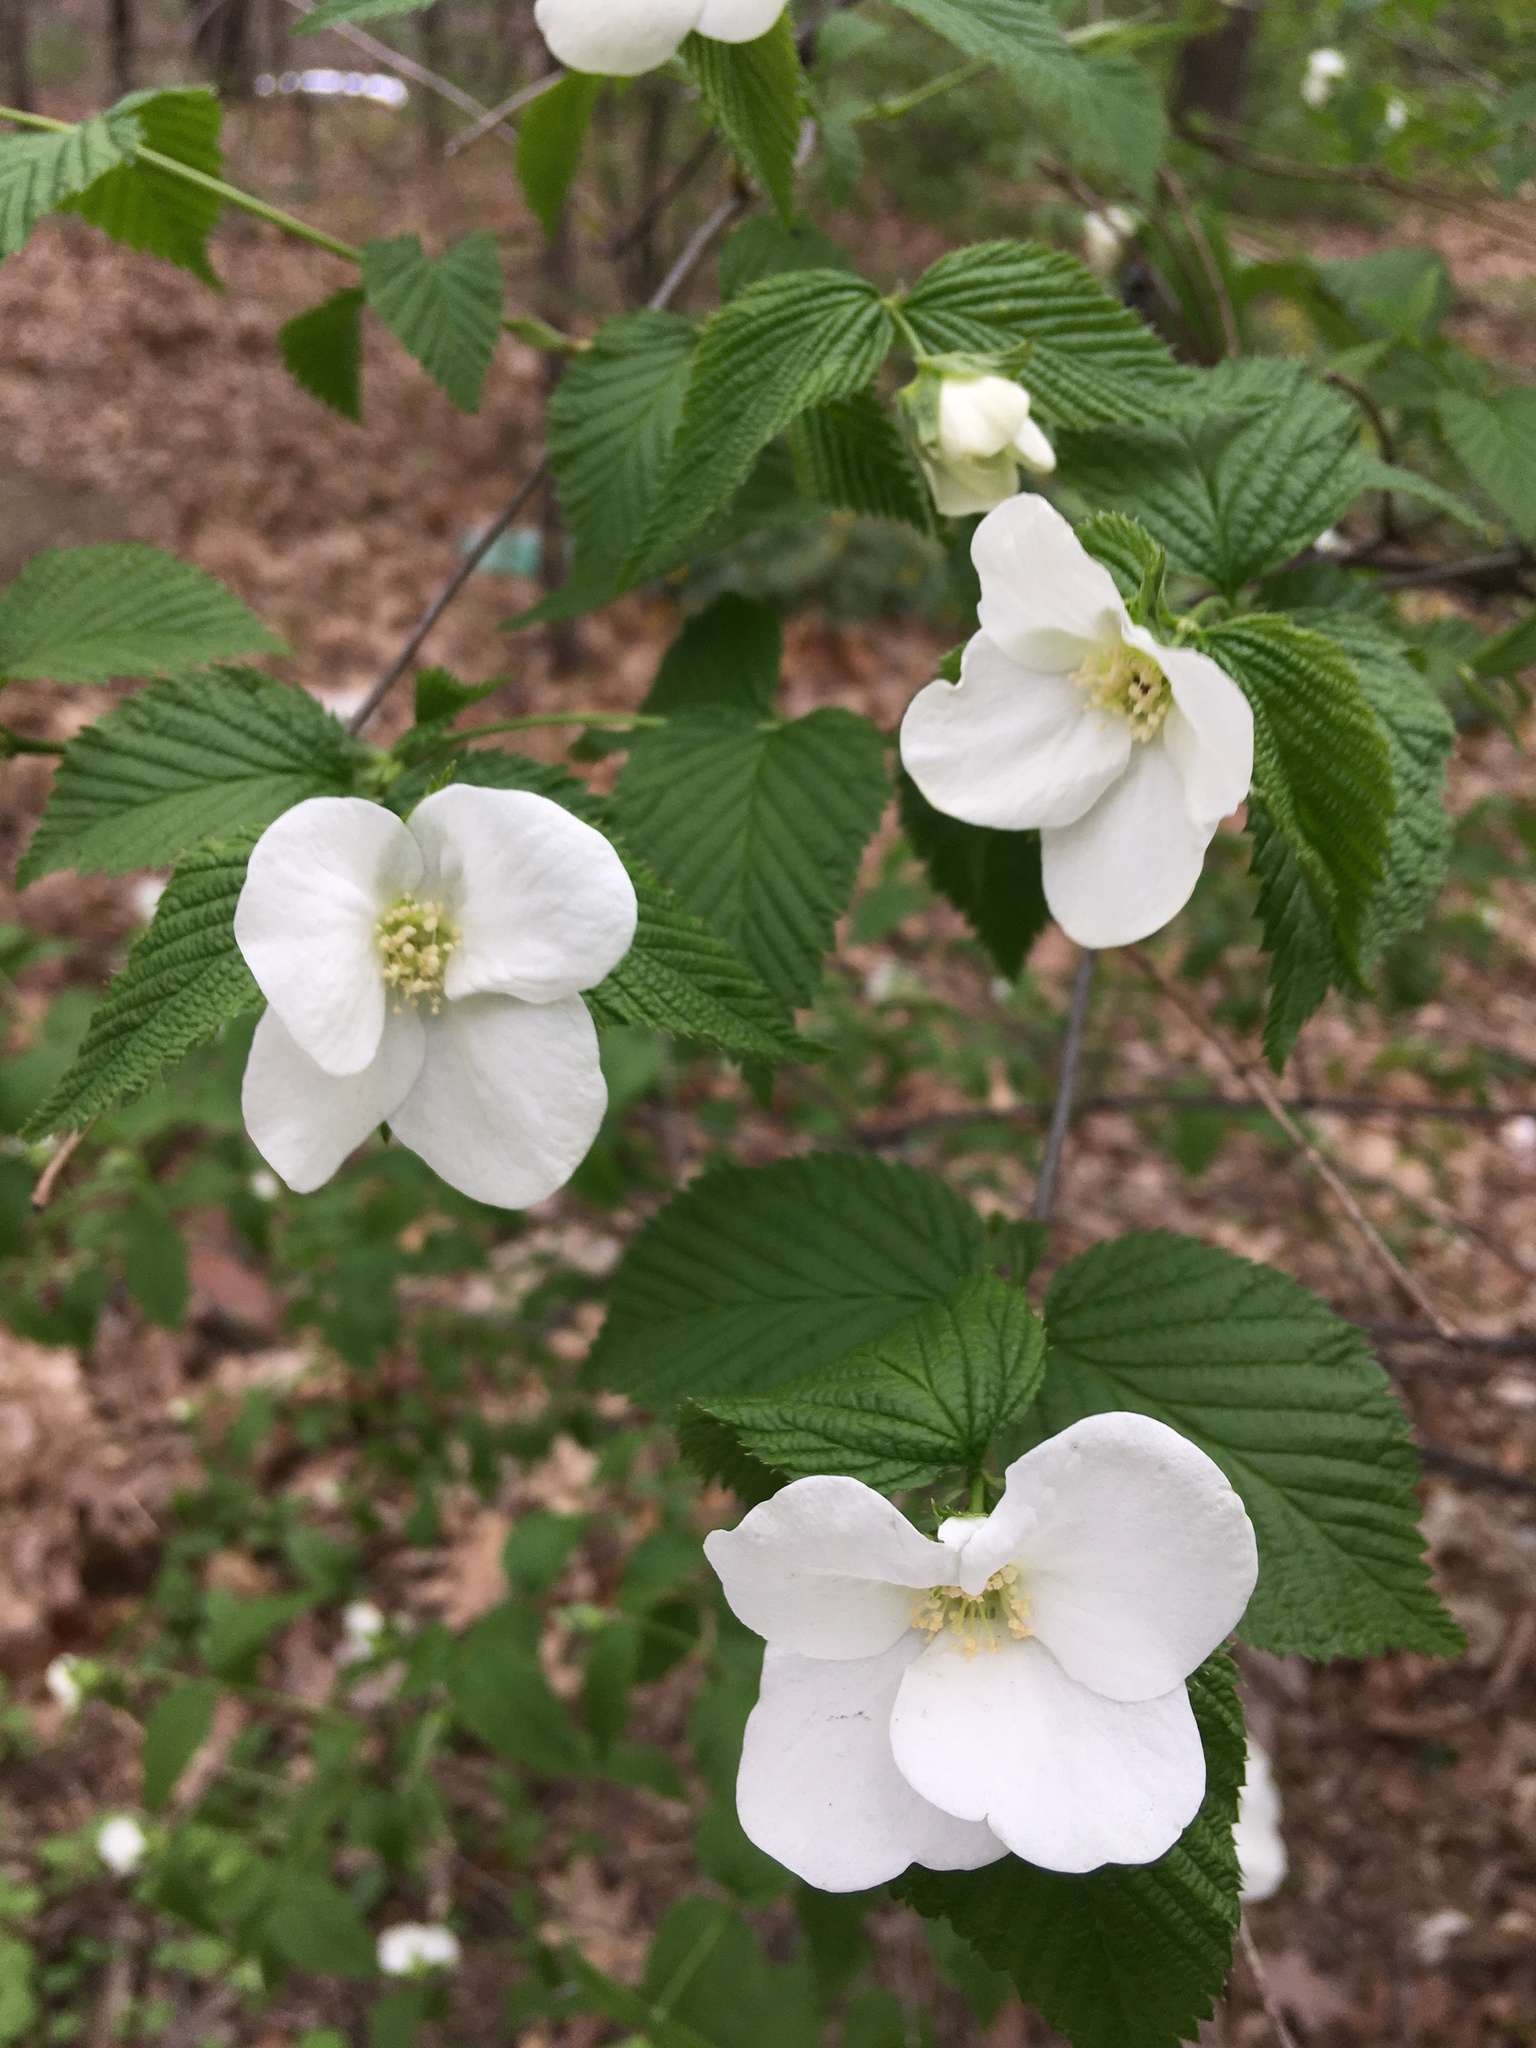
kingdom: Plantae
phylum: Tracheophyta
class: Magnoliopsida
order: Rosales
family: Rosaceae
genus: Rhodotypos
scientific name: Rhodotypos scandens
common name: Jetbead
